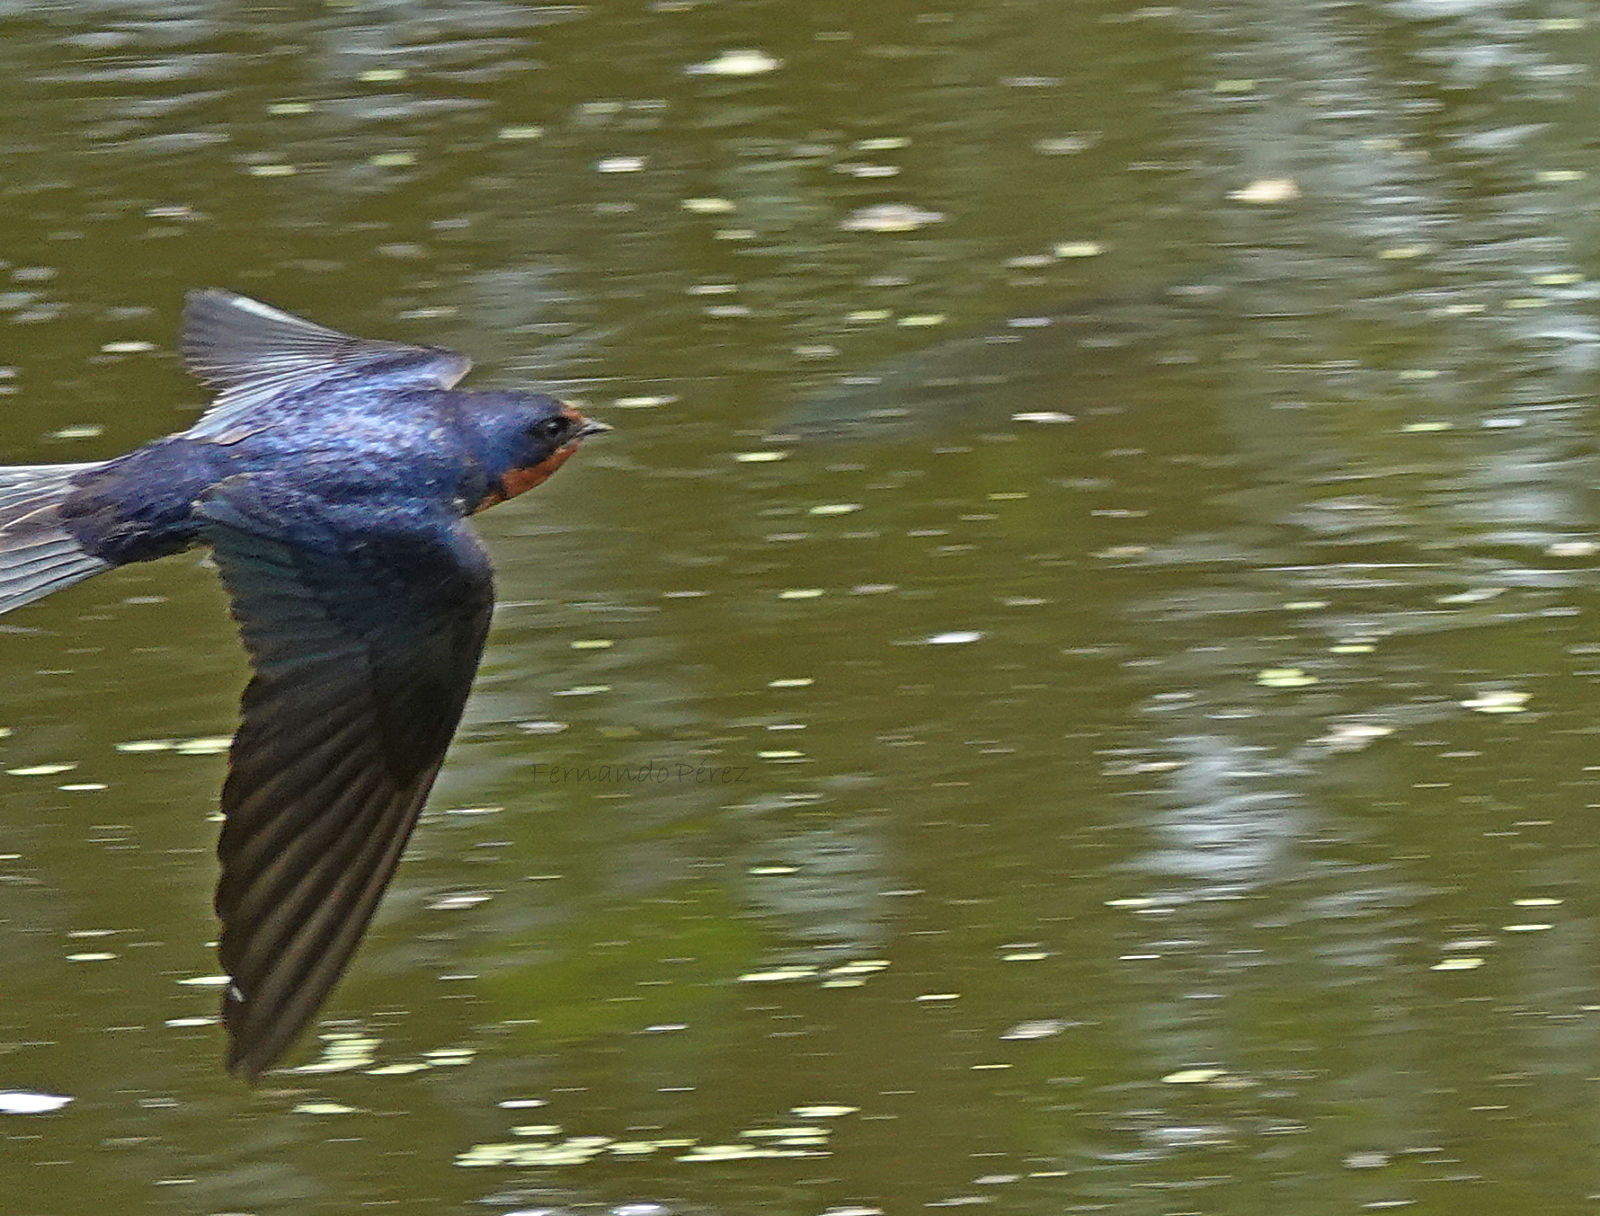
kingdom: Animalia
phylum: Chordata
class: Aves
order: Passeriformes
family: Hirundinidae
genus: Hirundo
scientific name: Hirundo rustica
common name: Barn swallow
